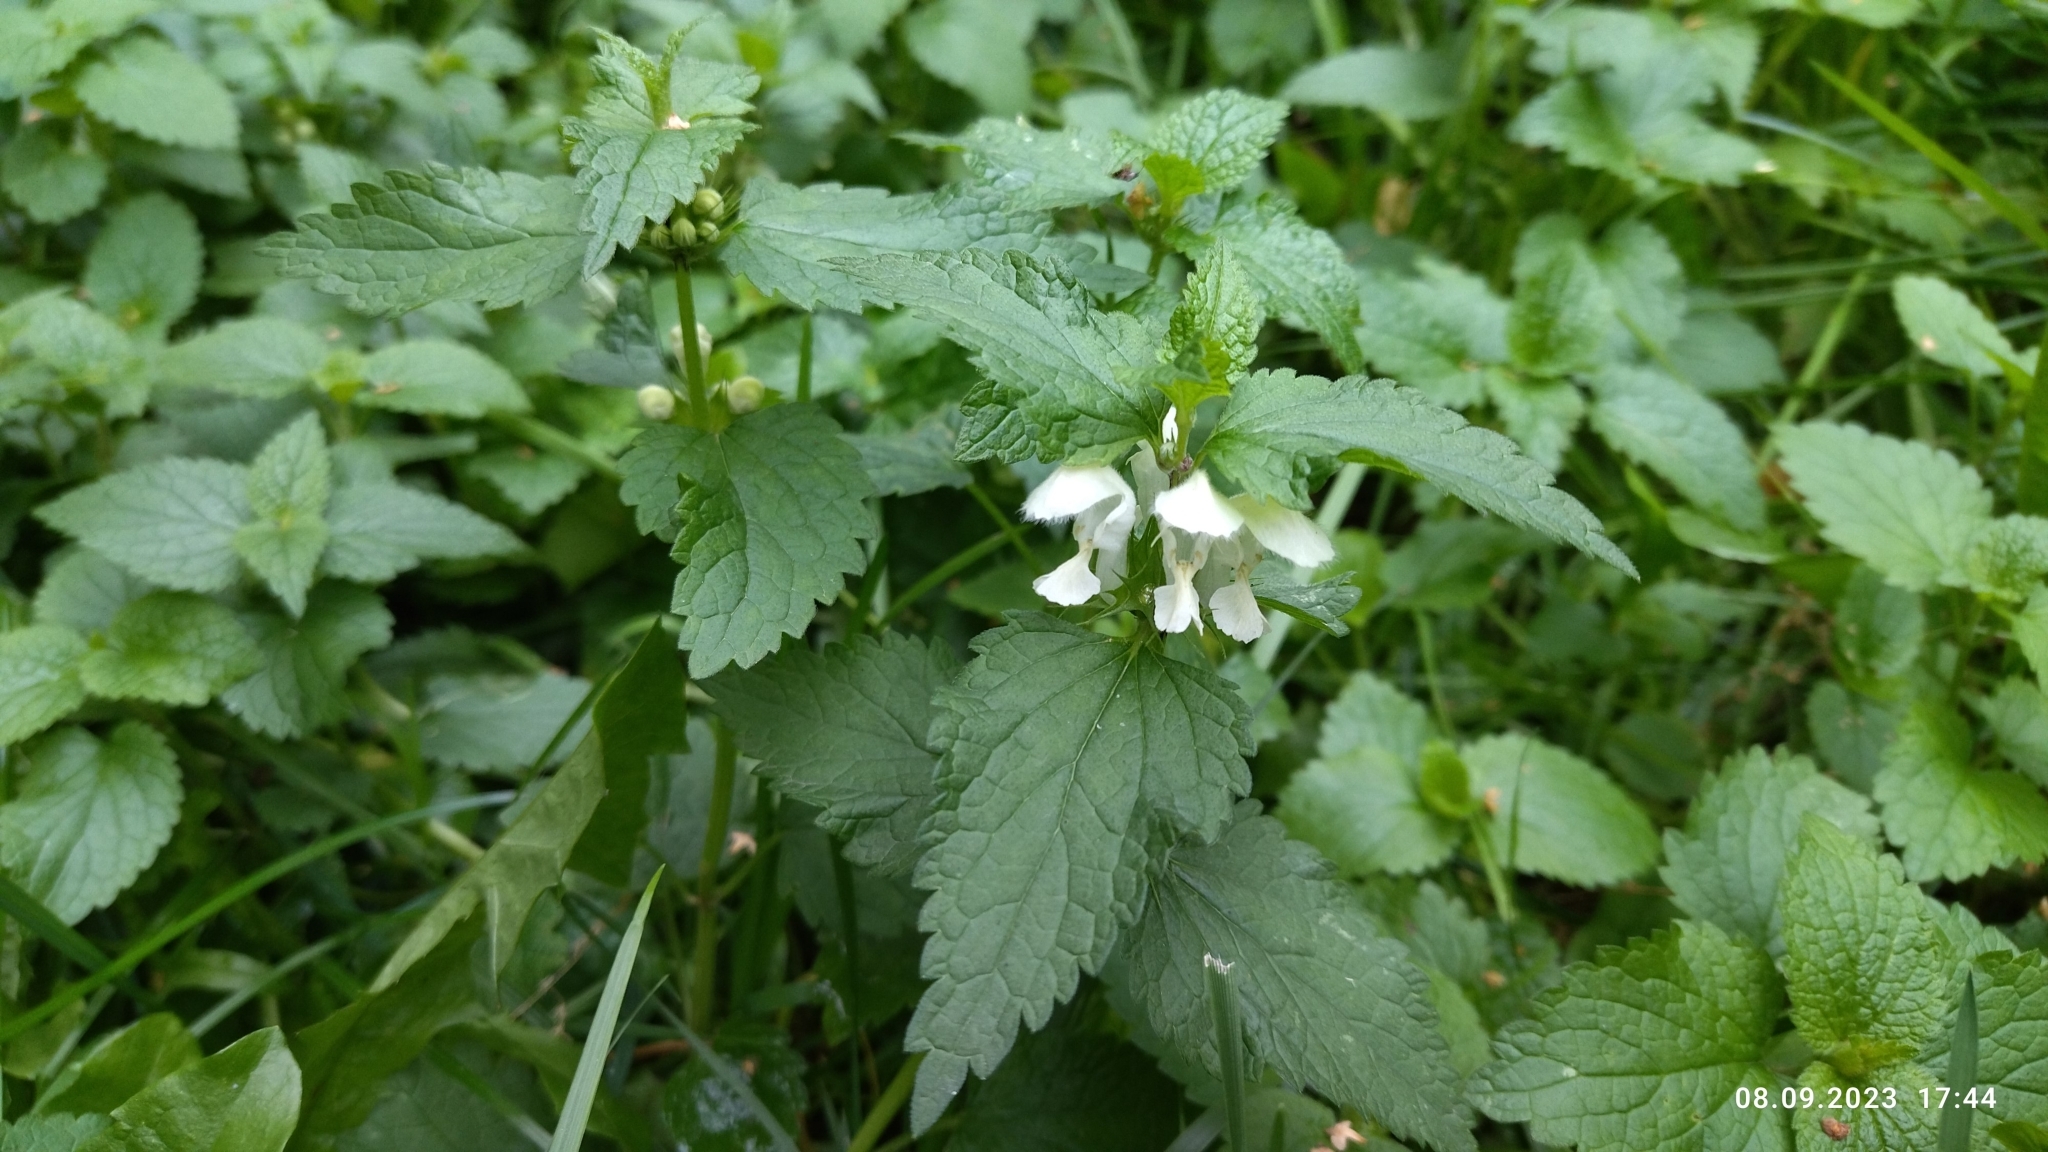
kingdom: Plantae
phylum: Tracheophyta
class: Magnoliopsida
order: Lamiales
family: Lamiaceae
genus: Lamium
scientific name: Lamium album
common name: White dead-nettle
